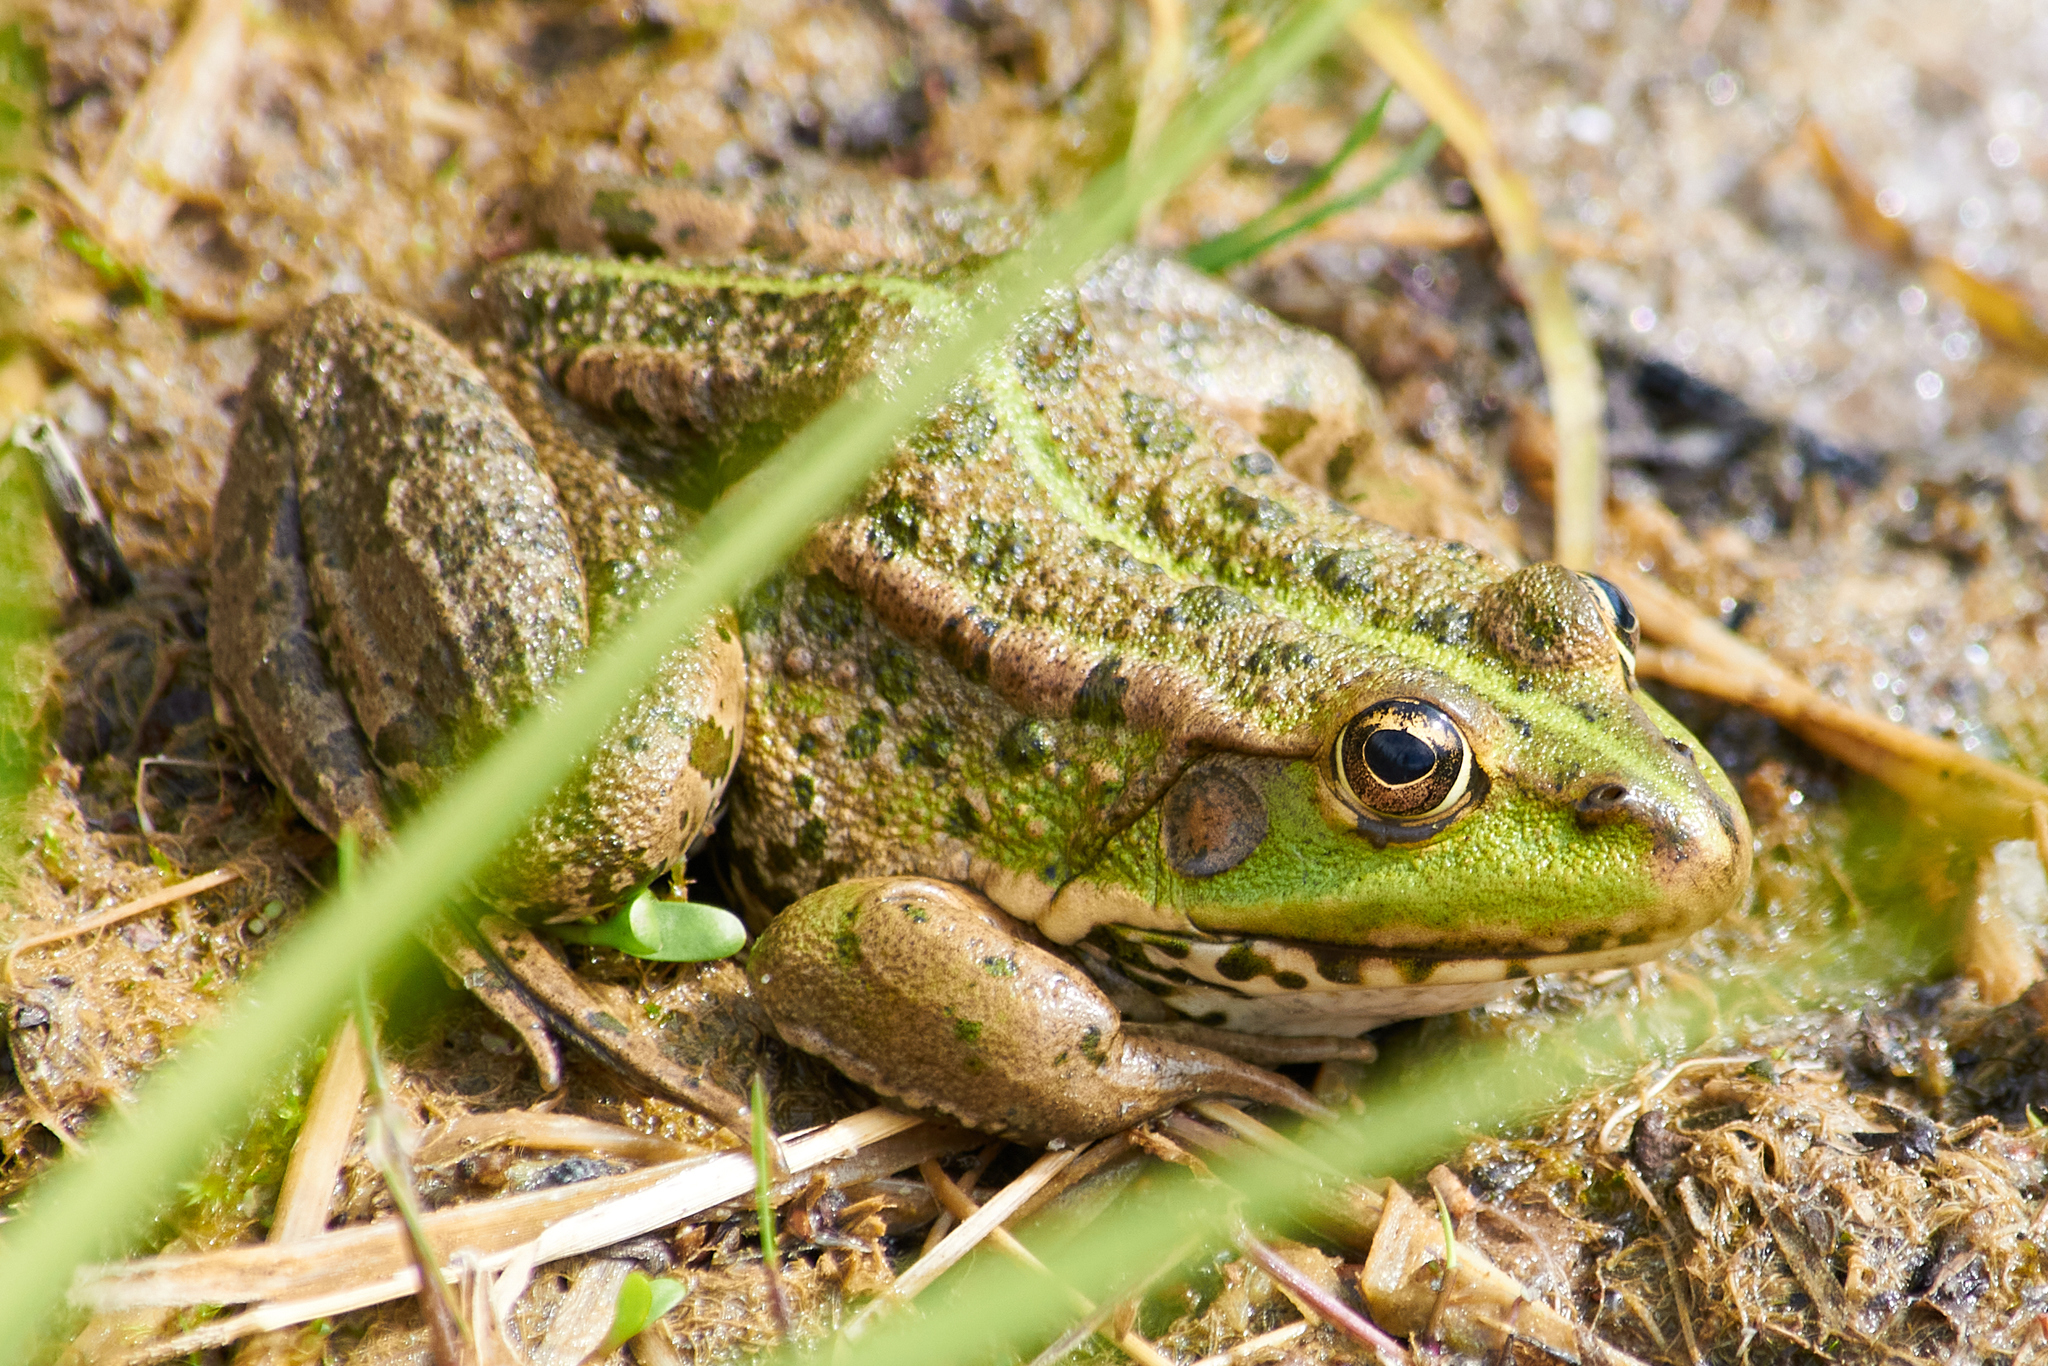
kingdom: Animalia
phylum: Chordata
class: Amphibia
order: Anura
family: Ranidae
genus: Pelophylax
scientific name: Pelophylax ridibundus
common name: Marsh frog
